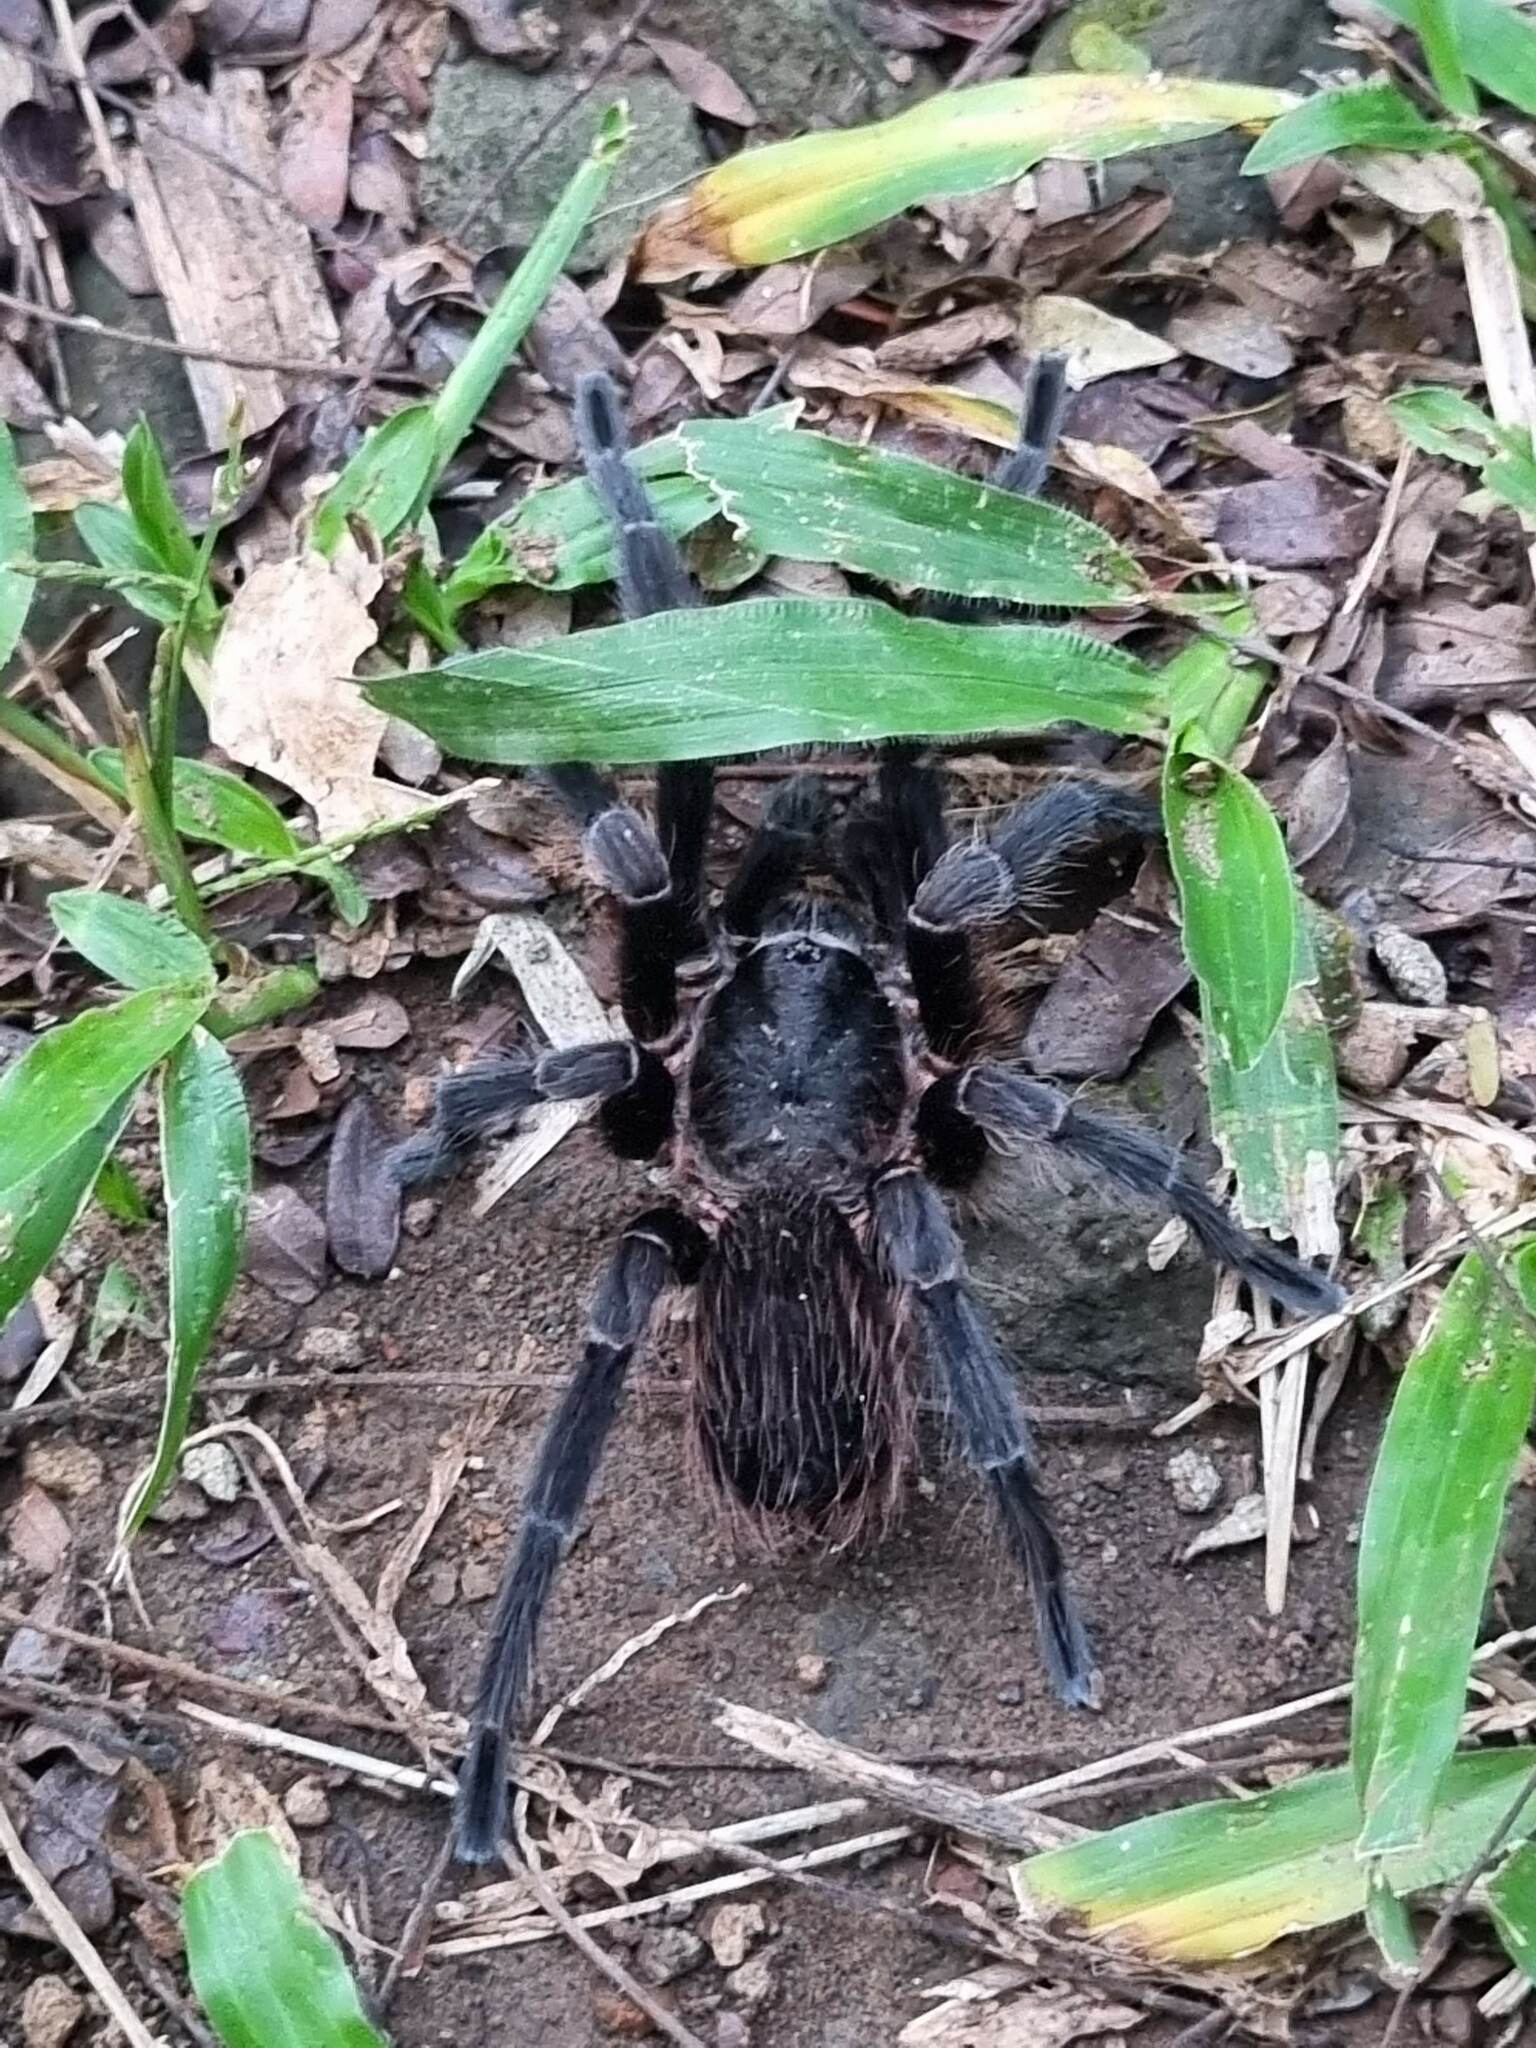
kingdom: Animalia
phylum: Arthropoda
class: Arachnida
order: Araneae
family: Theraphosidae
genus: Pterinopelma
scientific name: Pterinopelma longisternale
